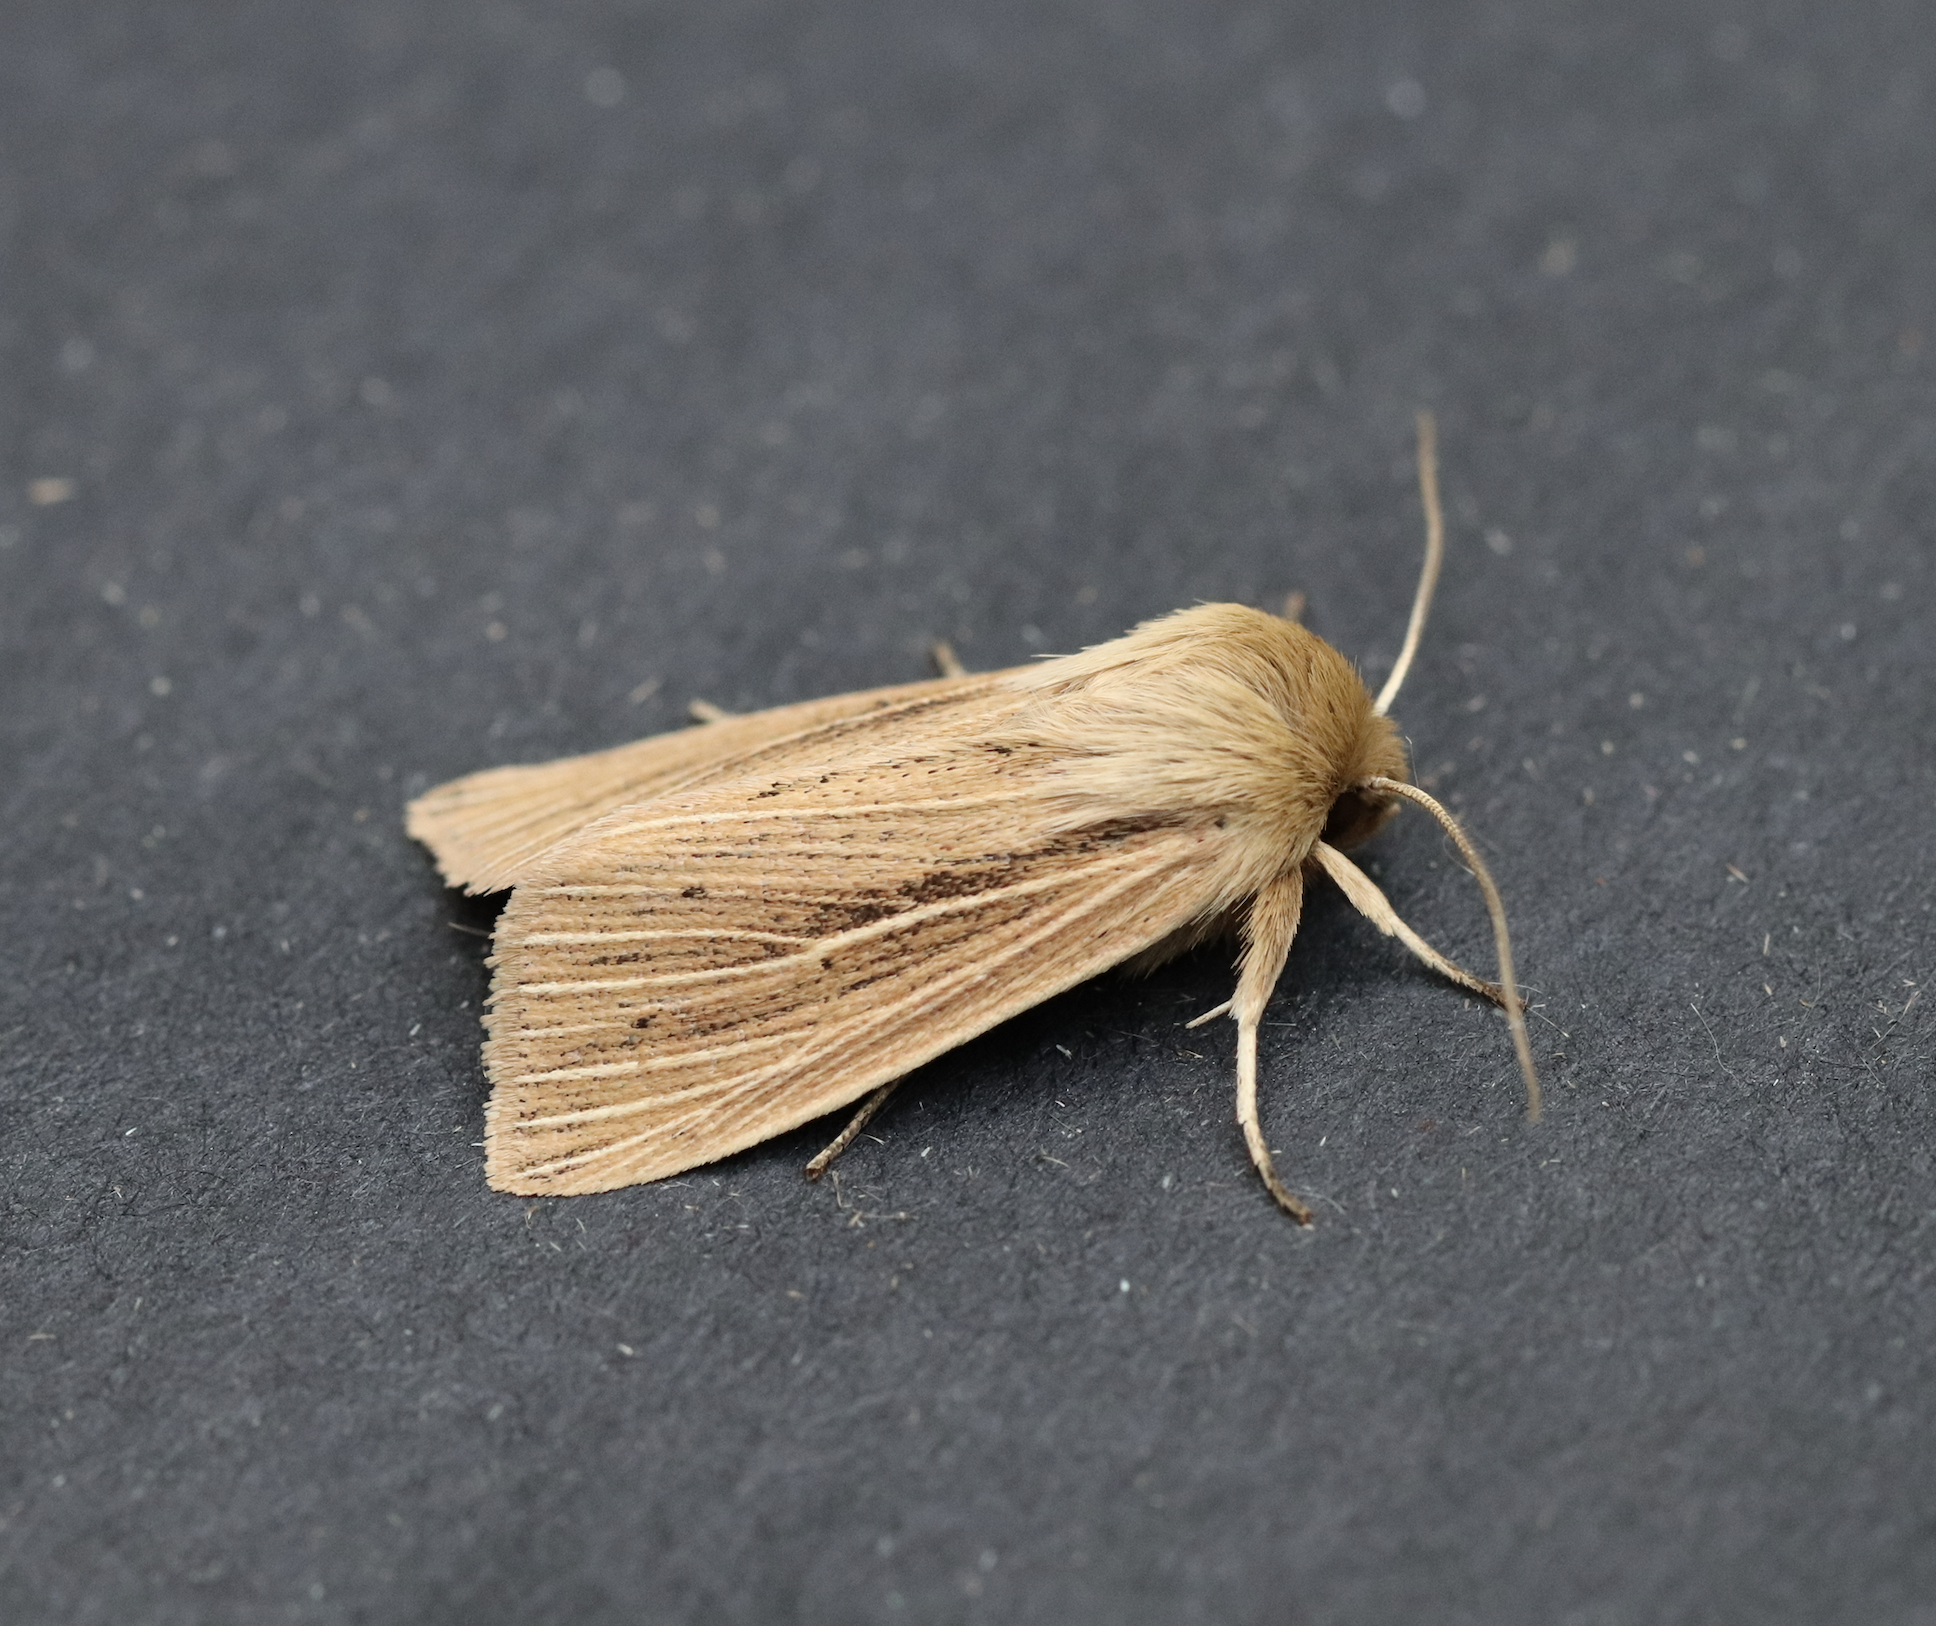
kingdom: Animalia
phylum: Arthropoda
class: Insecta
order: Lepidoptera
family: Noctuidae
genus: Mythimna
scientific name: Mythimna yukonensis
